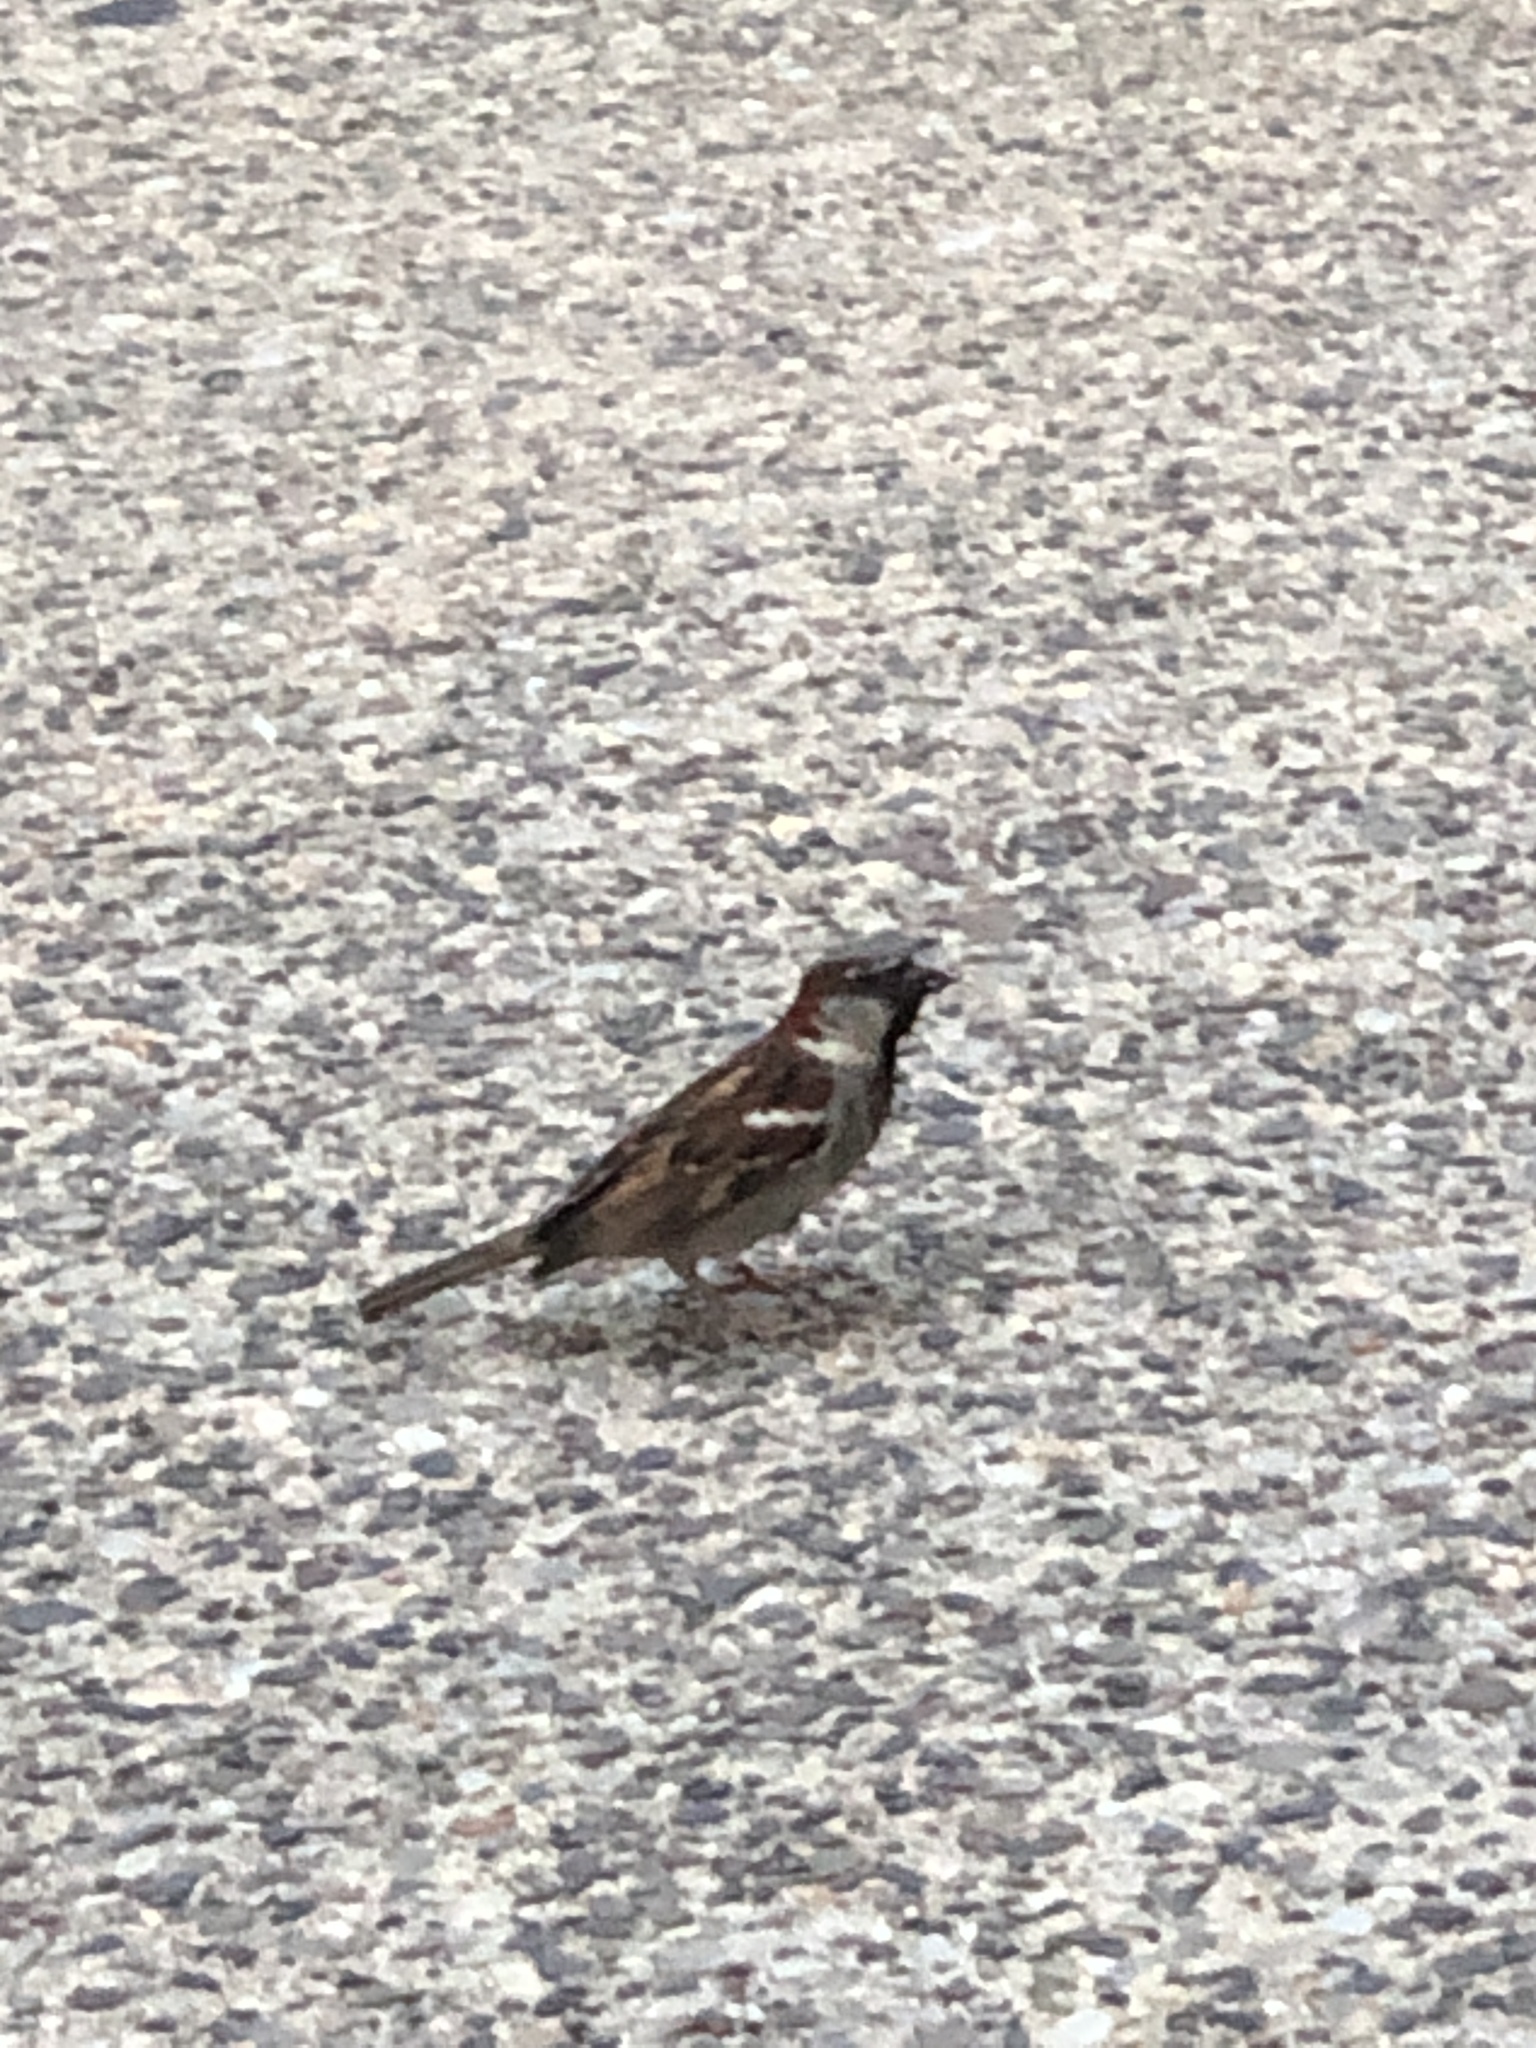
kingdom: Animalia
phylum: Chordata
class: Aves
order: Passeriformes
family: Passeridae
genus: Passer
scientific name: Passer domesticus
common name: House sparrow
